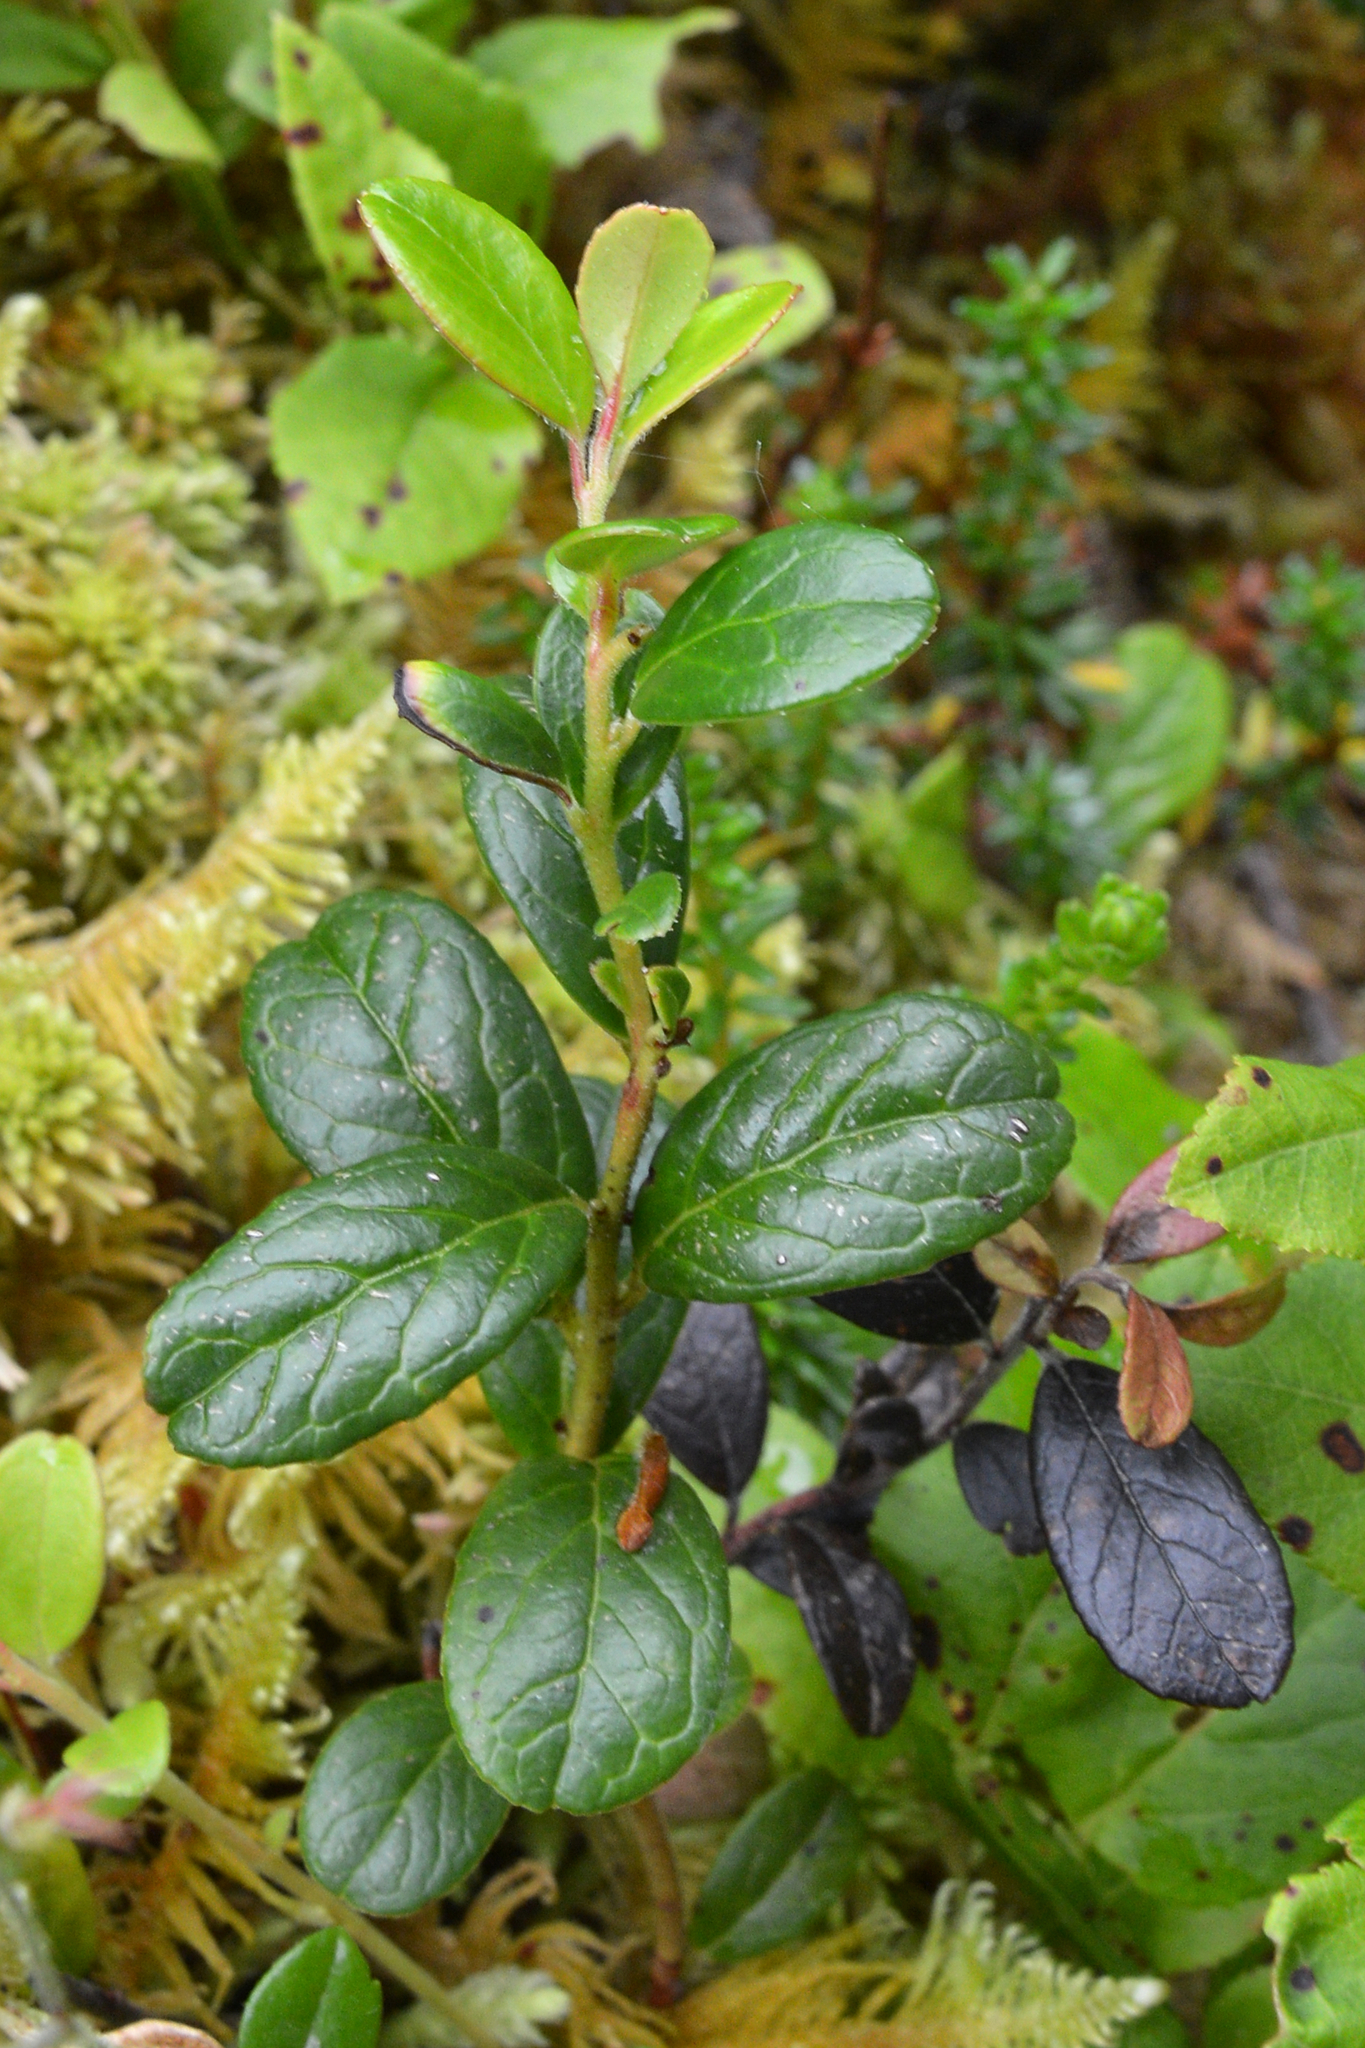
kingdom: Plantae
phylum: Tracheophyta
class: Magnoliopsida
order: Ericales
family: Ericaceae
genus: Vaccinium
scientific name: Vaccinium vitis-idaea
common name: Cowberry
